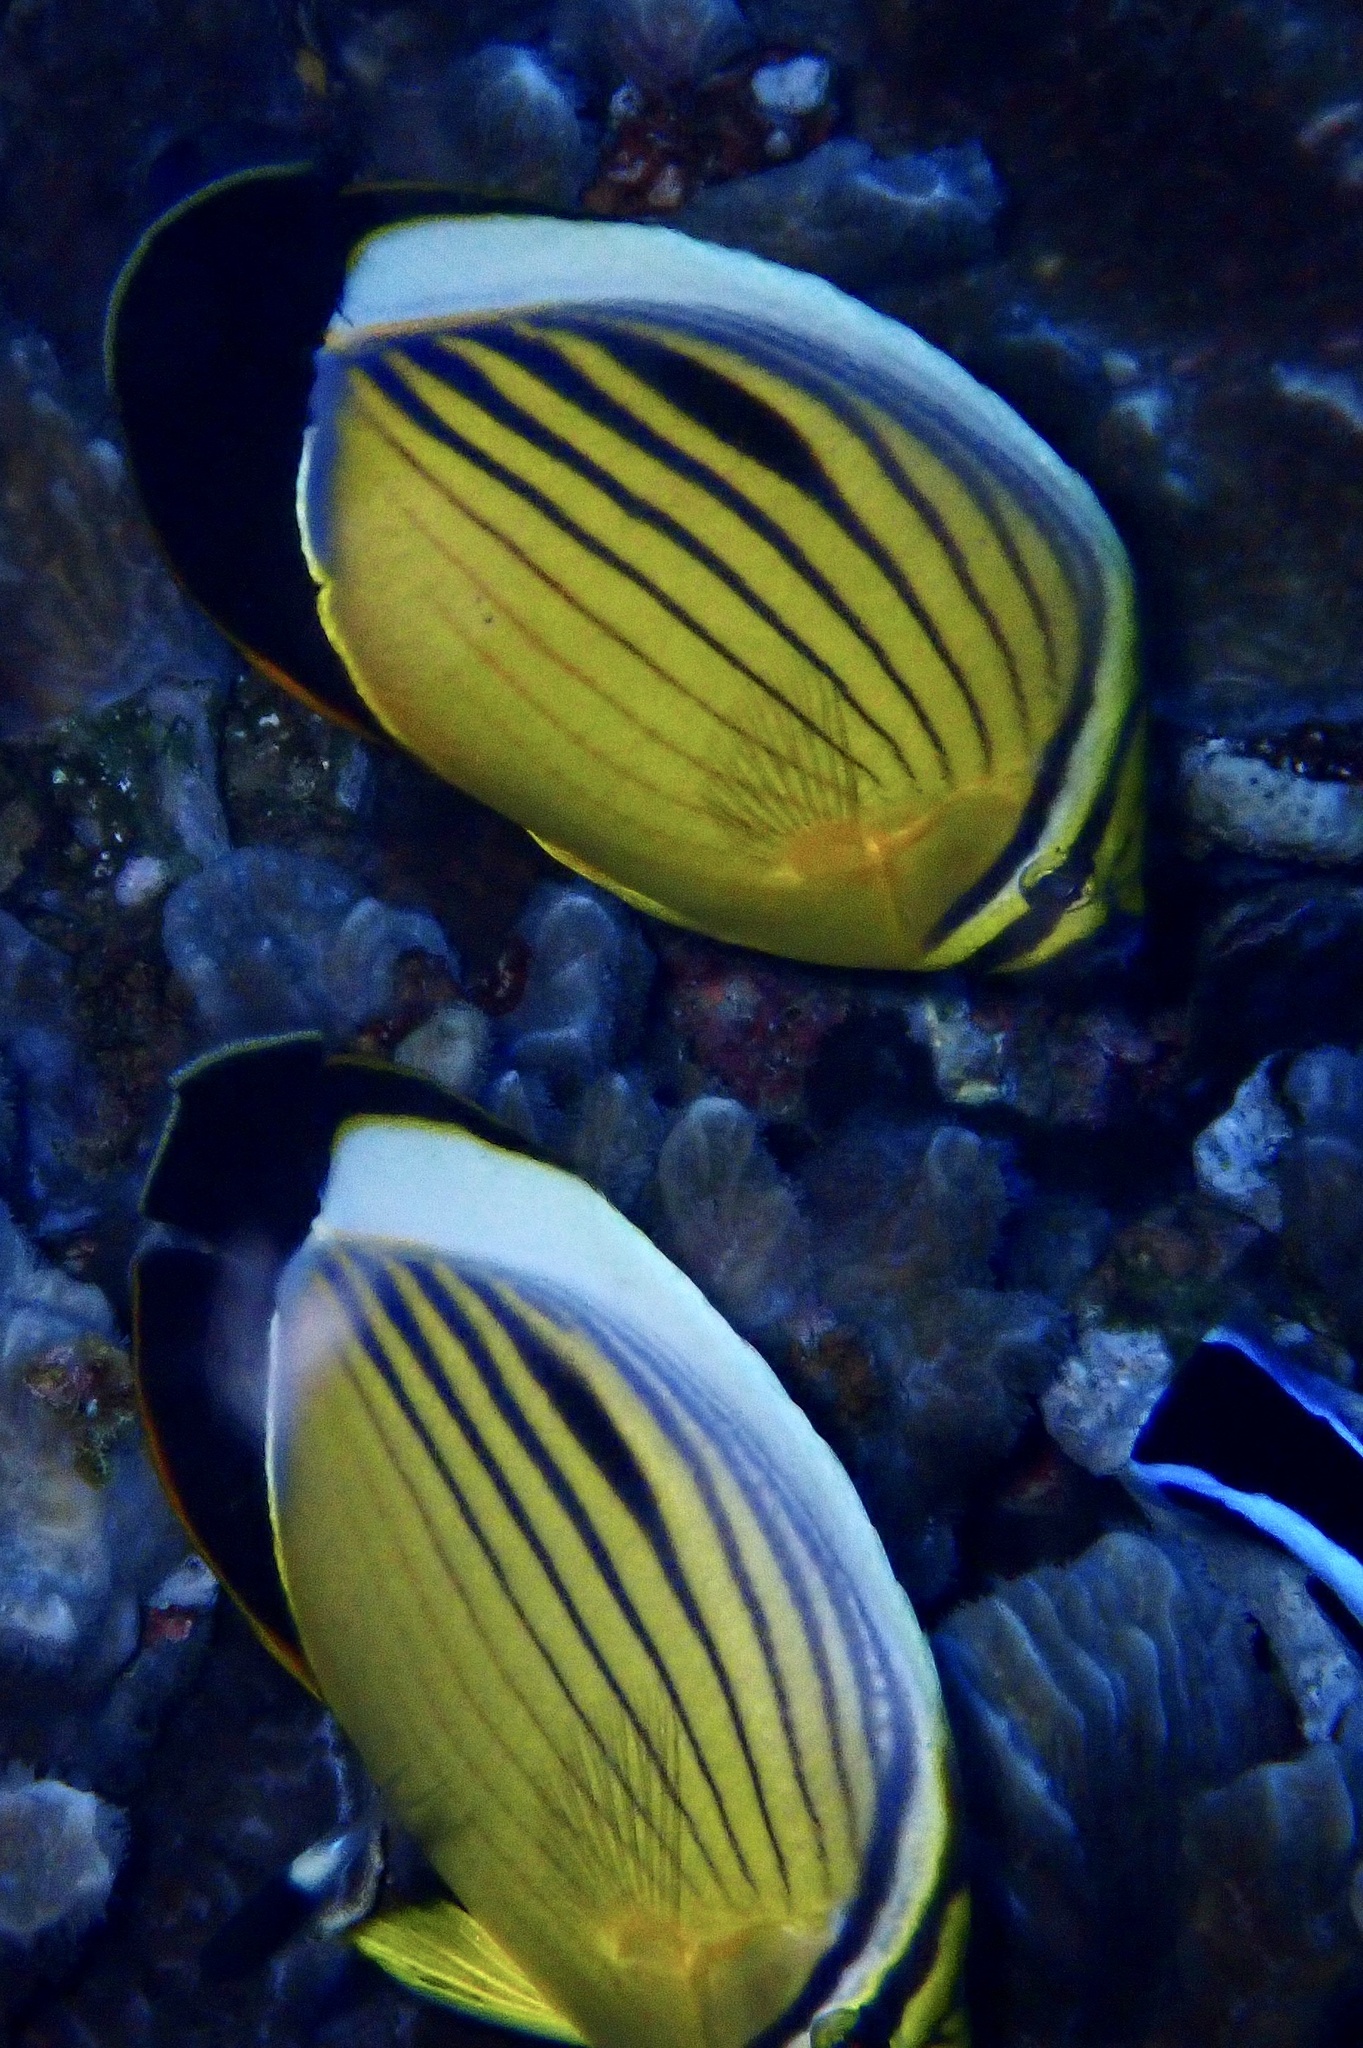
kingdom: Animalia
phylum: Chordata
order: Perciformes
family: Chaetodontidae
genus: Chaetodon
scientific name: Chaetodon austriacus
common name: Exquisite butterflyfish
